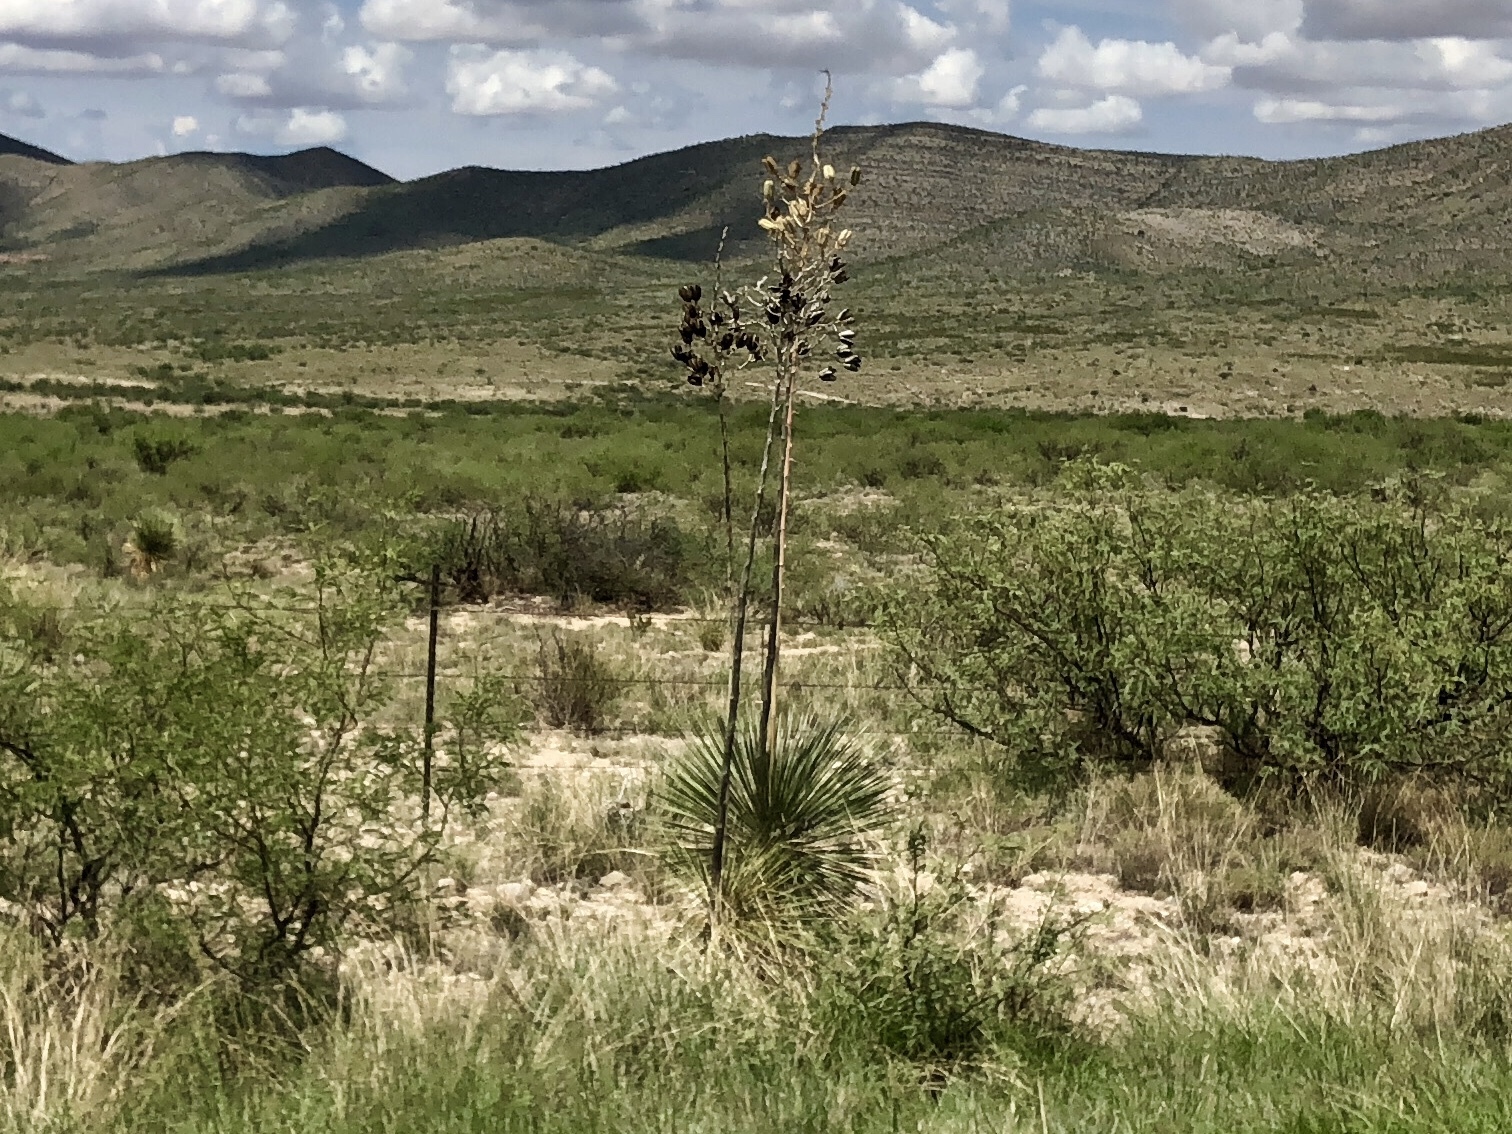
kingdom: Plantae
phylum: Tracheophyta
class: Liliopsida
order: Asparagales
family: Asparagaceae
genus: Yucca
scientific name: Yucca elata
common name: Palmella
